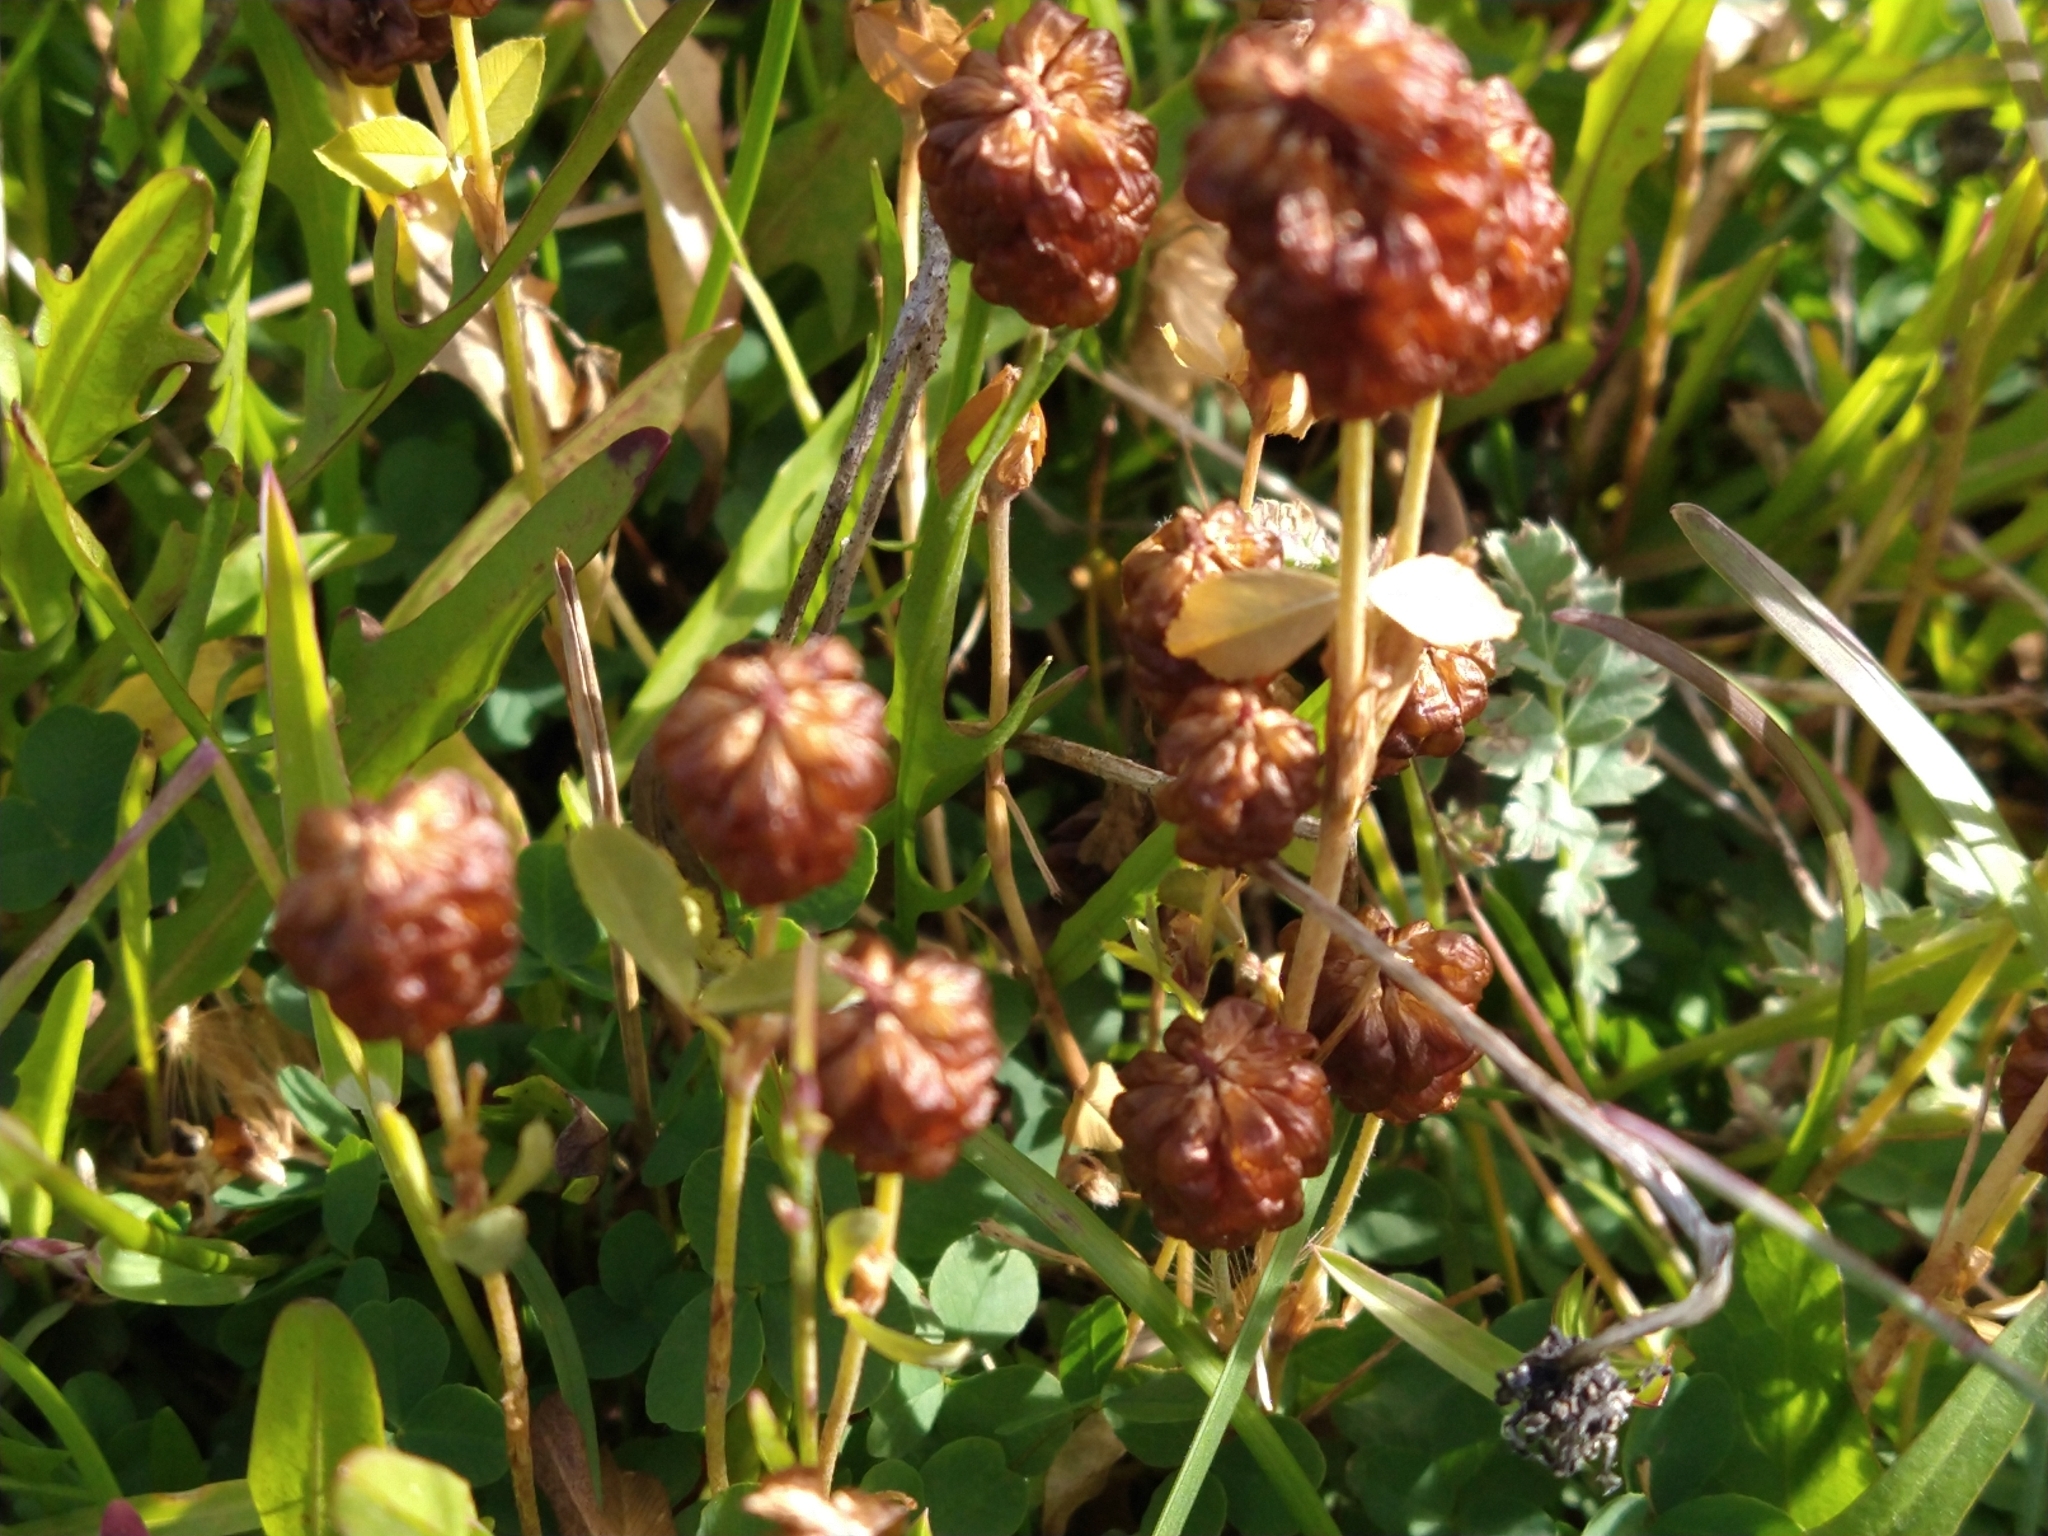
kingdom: Plantae
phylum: Tracheophyta
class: Magnoliopsida
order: Fabales
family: Fabaceae
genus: Trifolium
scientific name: Trifolium spadiceum
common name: Brown moor clover
